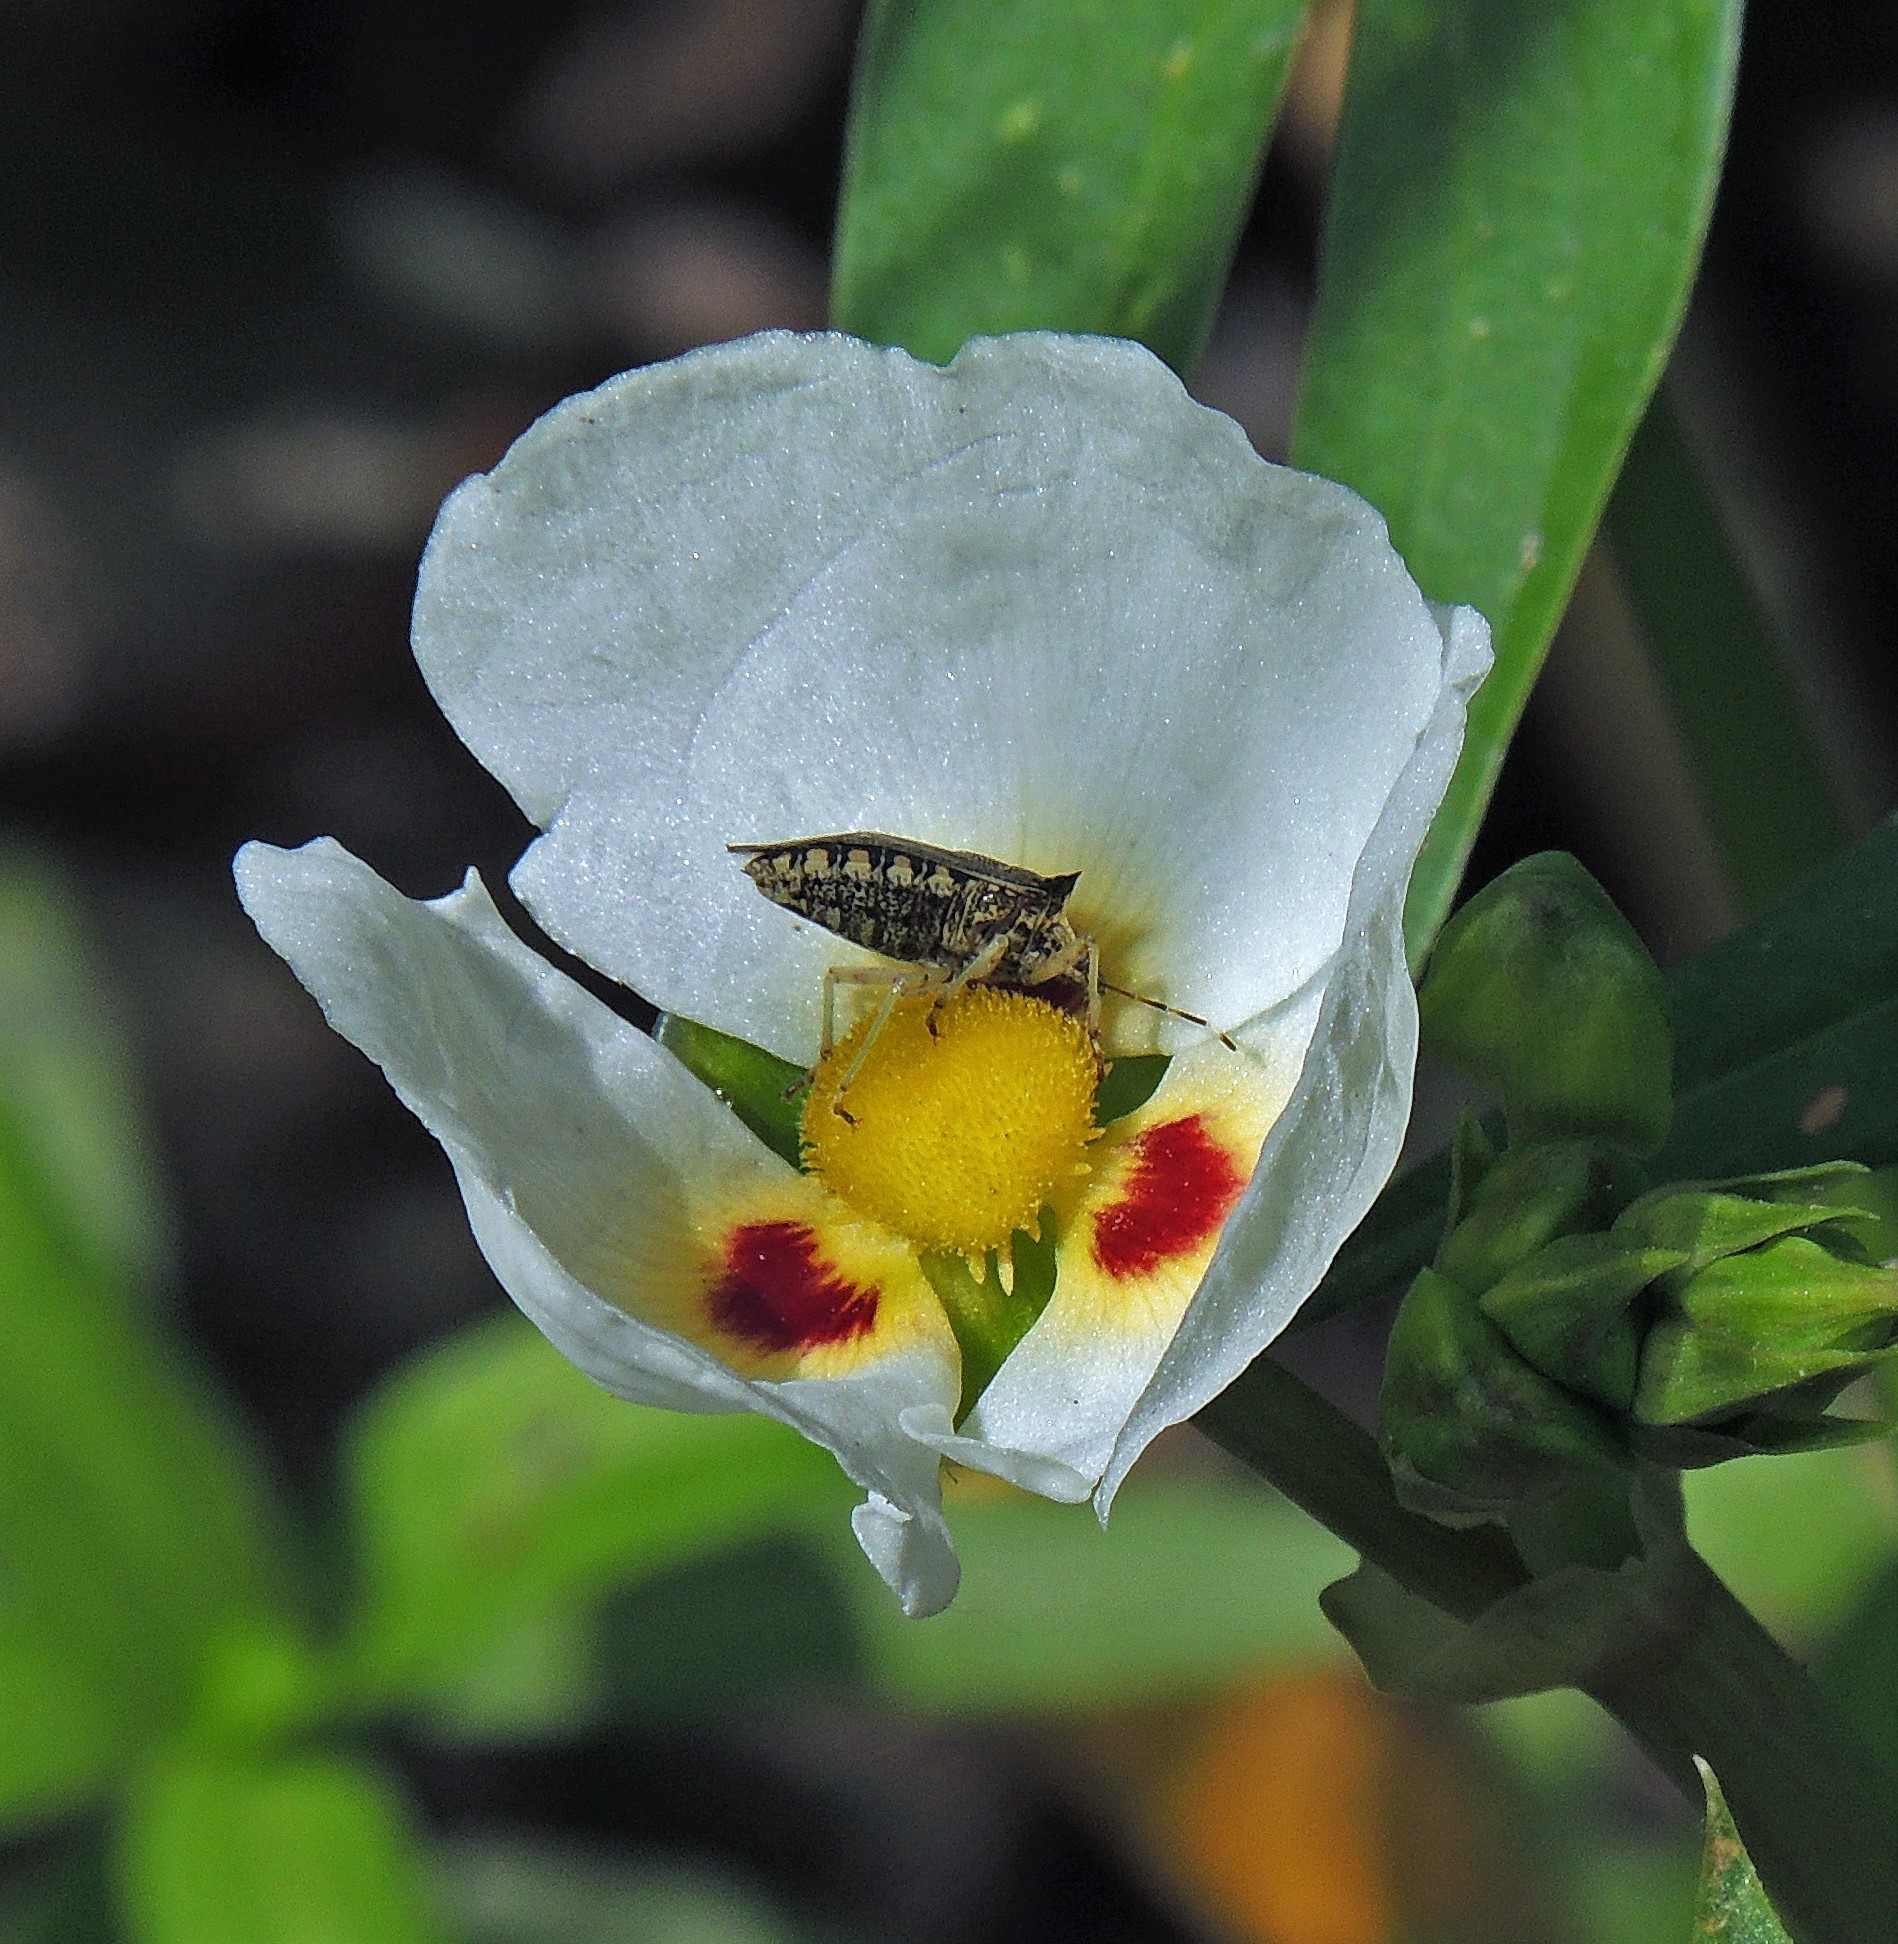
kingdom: Plantae
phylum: Tracheophyta
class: Liliopsida
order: Alismatales
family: Alismataceae
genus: Sagittaria
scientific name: Sagittaria montevidensis
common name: Giant arrowhead
